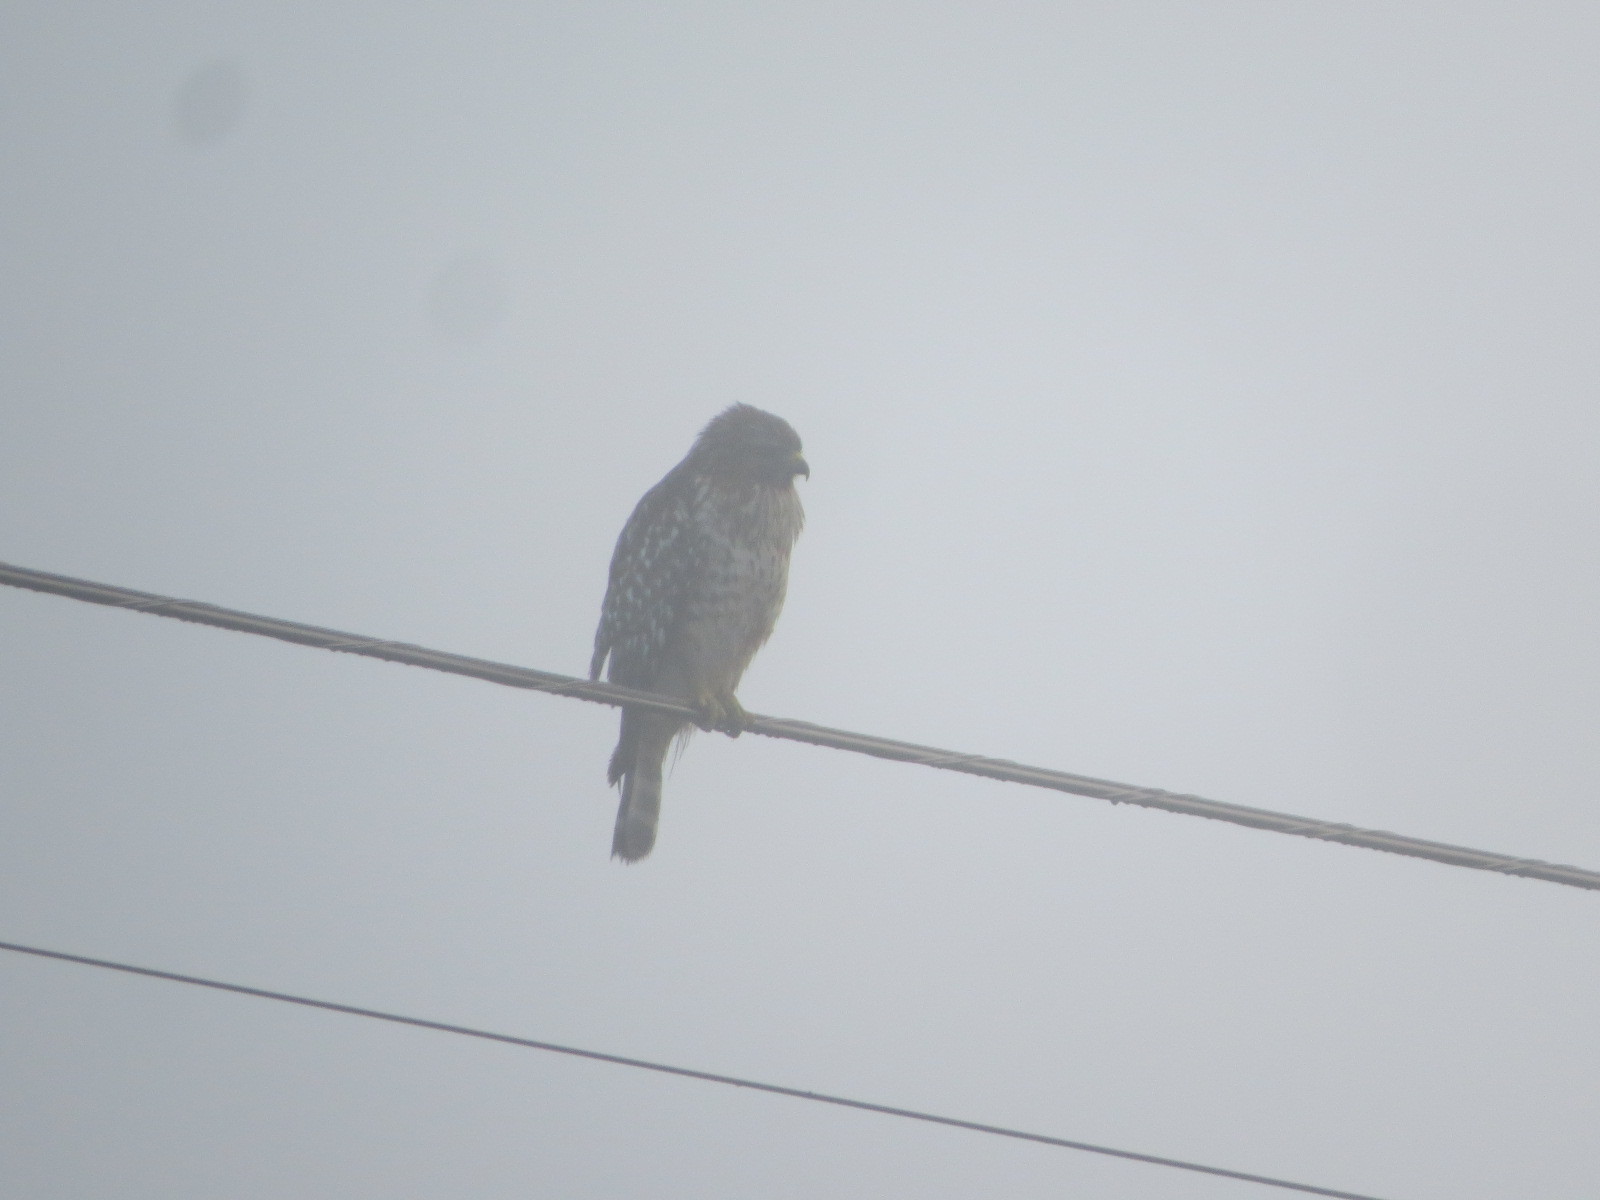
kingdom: Animalia
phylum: Chordata
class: Aves
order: Accipitriformes
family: Accipitridae
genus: Buteo
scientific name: Buteo lineatus
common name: Red-shouldered hawk
